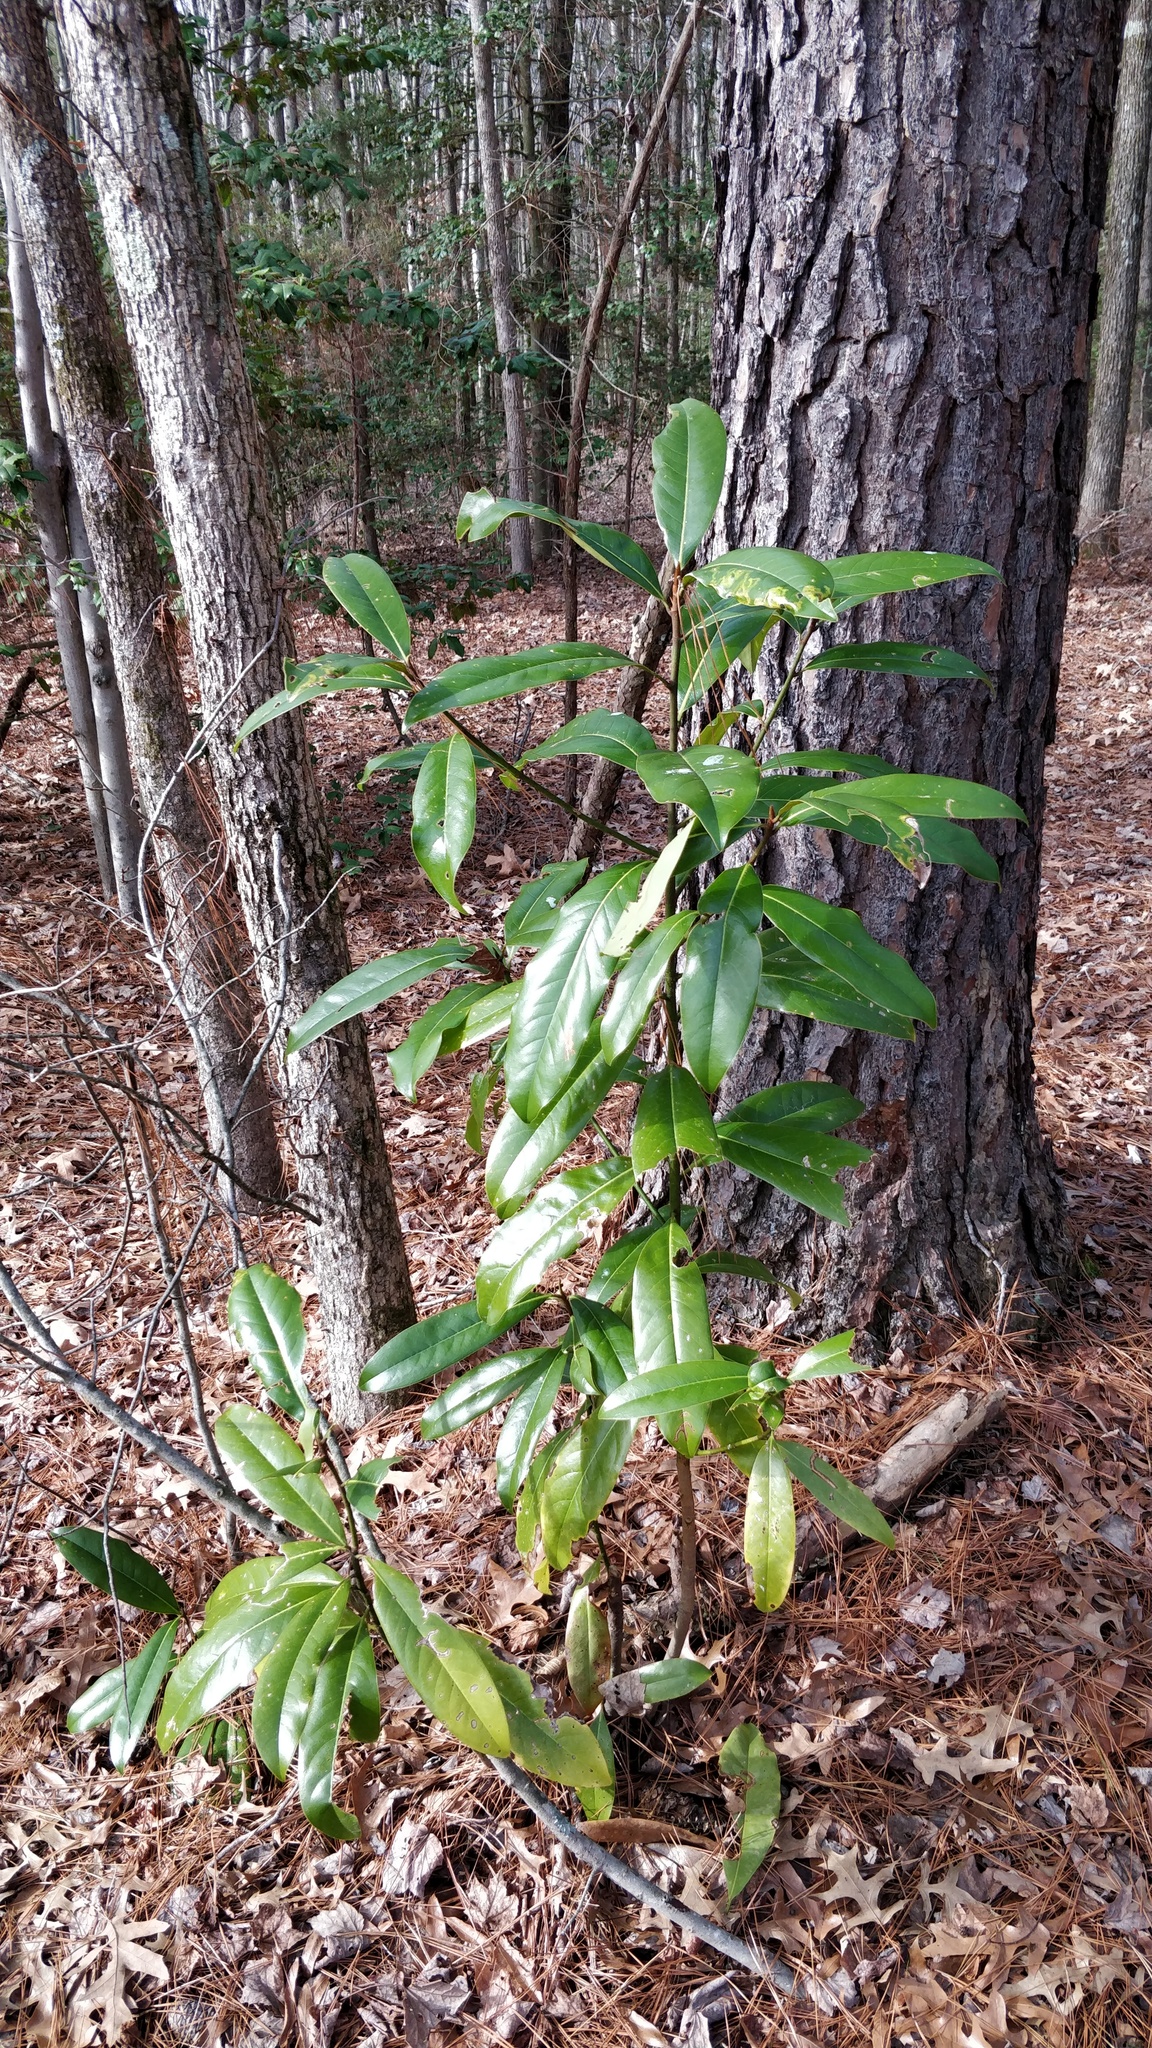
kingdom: Plantae
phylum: Tracheophyta
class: Magnoliopsida
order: Magnoliales
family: Magnoliaceae
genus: Magnolia
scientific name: Magnolia grandiflora
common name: Southern magnolia
